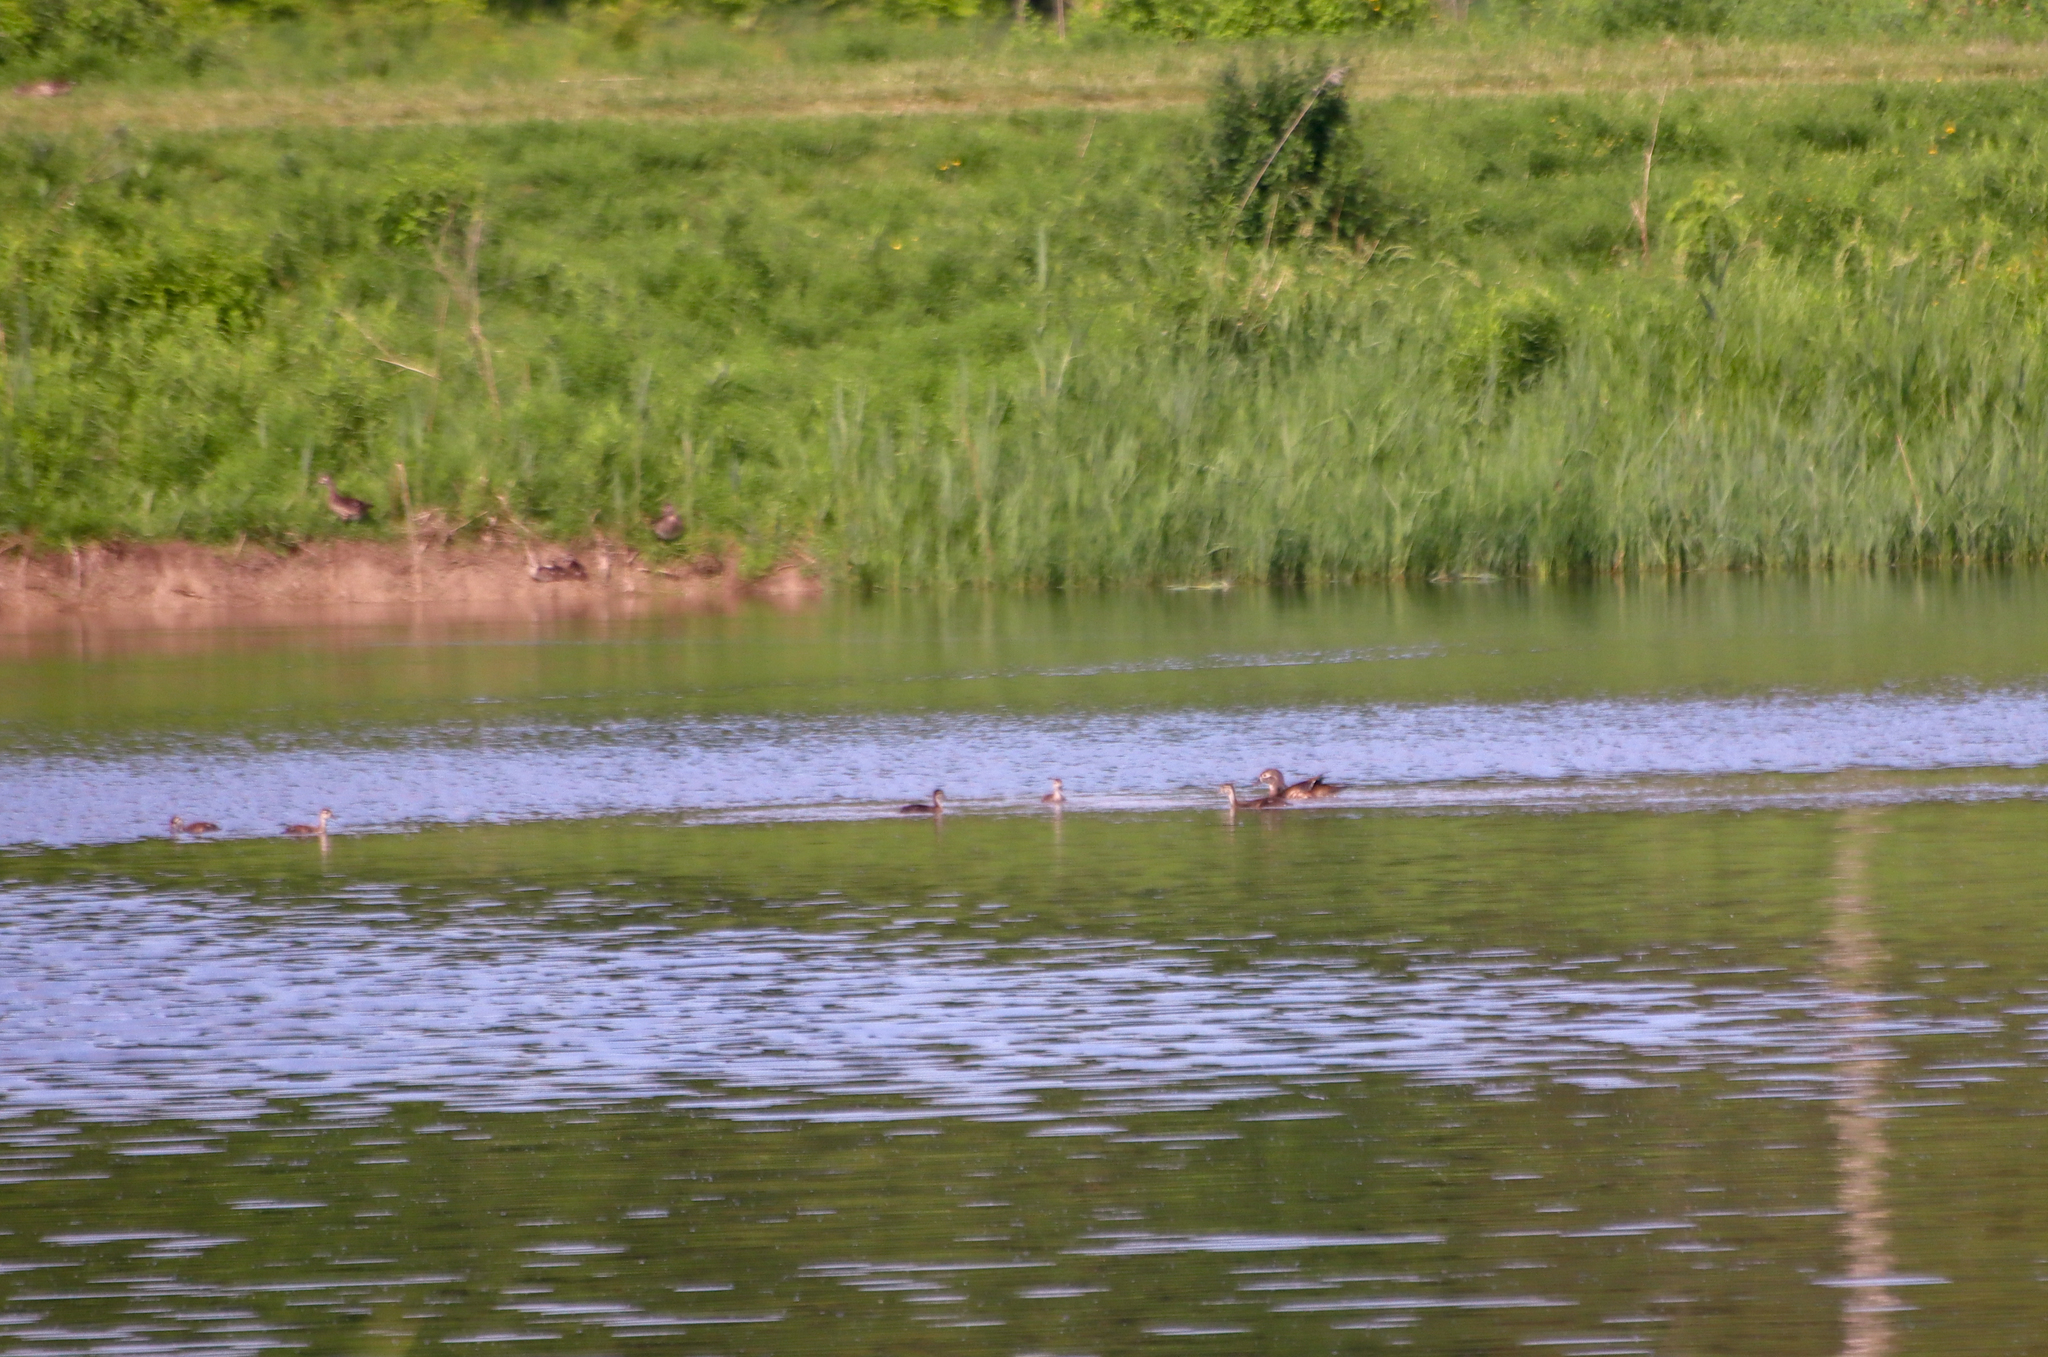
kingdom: Animalia
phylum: Chordata
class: Aves
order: Anseriformes
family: Anatidae
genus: Aix
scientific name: Aix sponsa
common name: Wood duck
